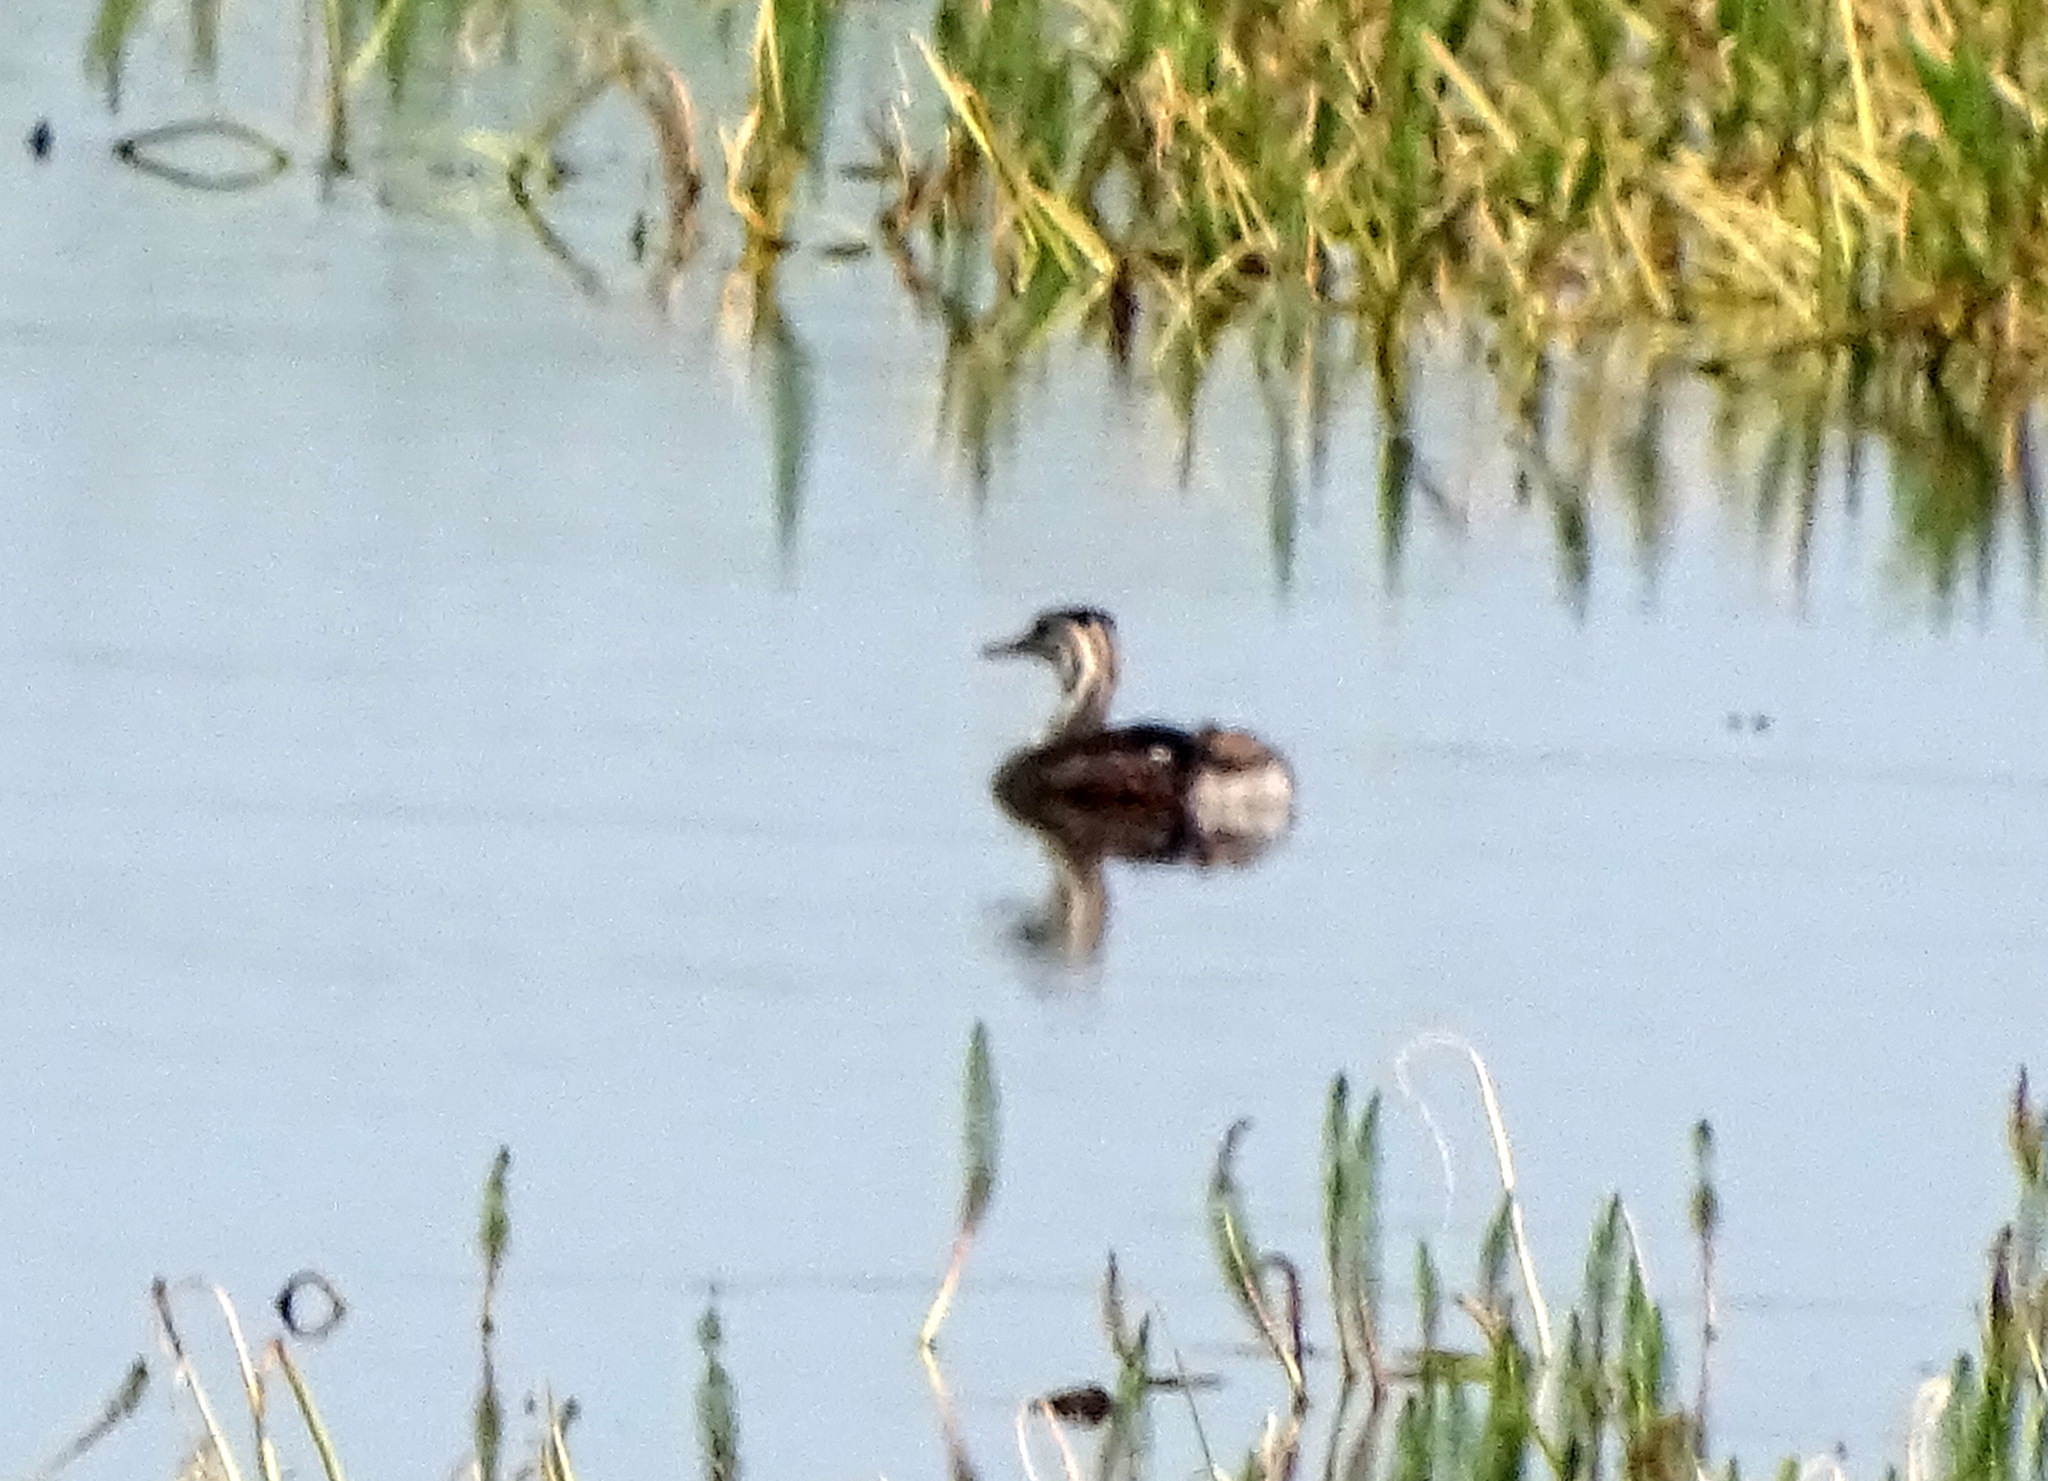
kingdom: Animalia
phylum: Chordata
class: Aves
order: Podicipediformes
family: Podicipedidae
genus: Podiceps
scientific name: Podiceps cristatus
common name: Great crested grebe
